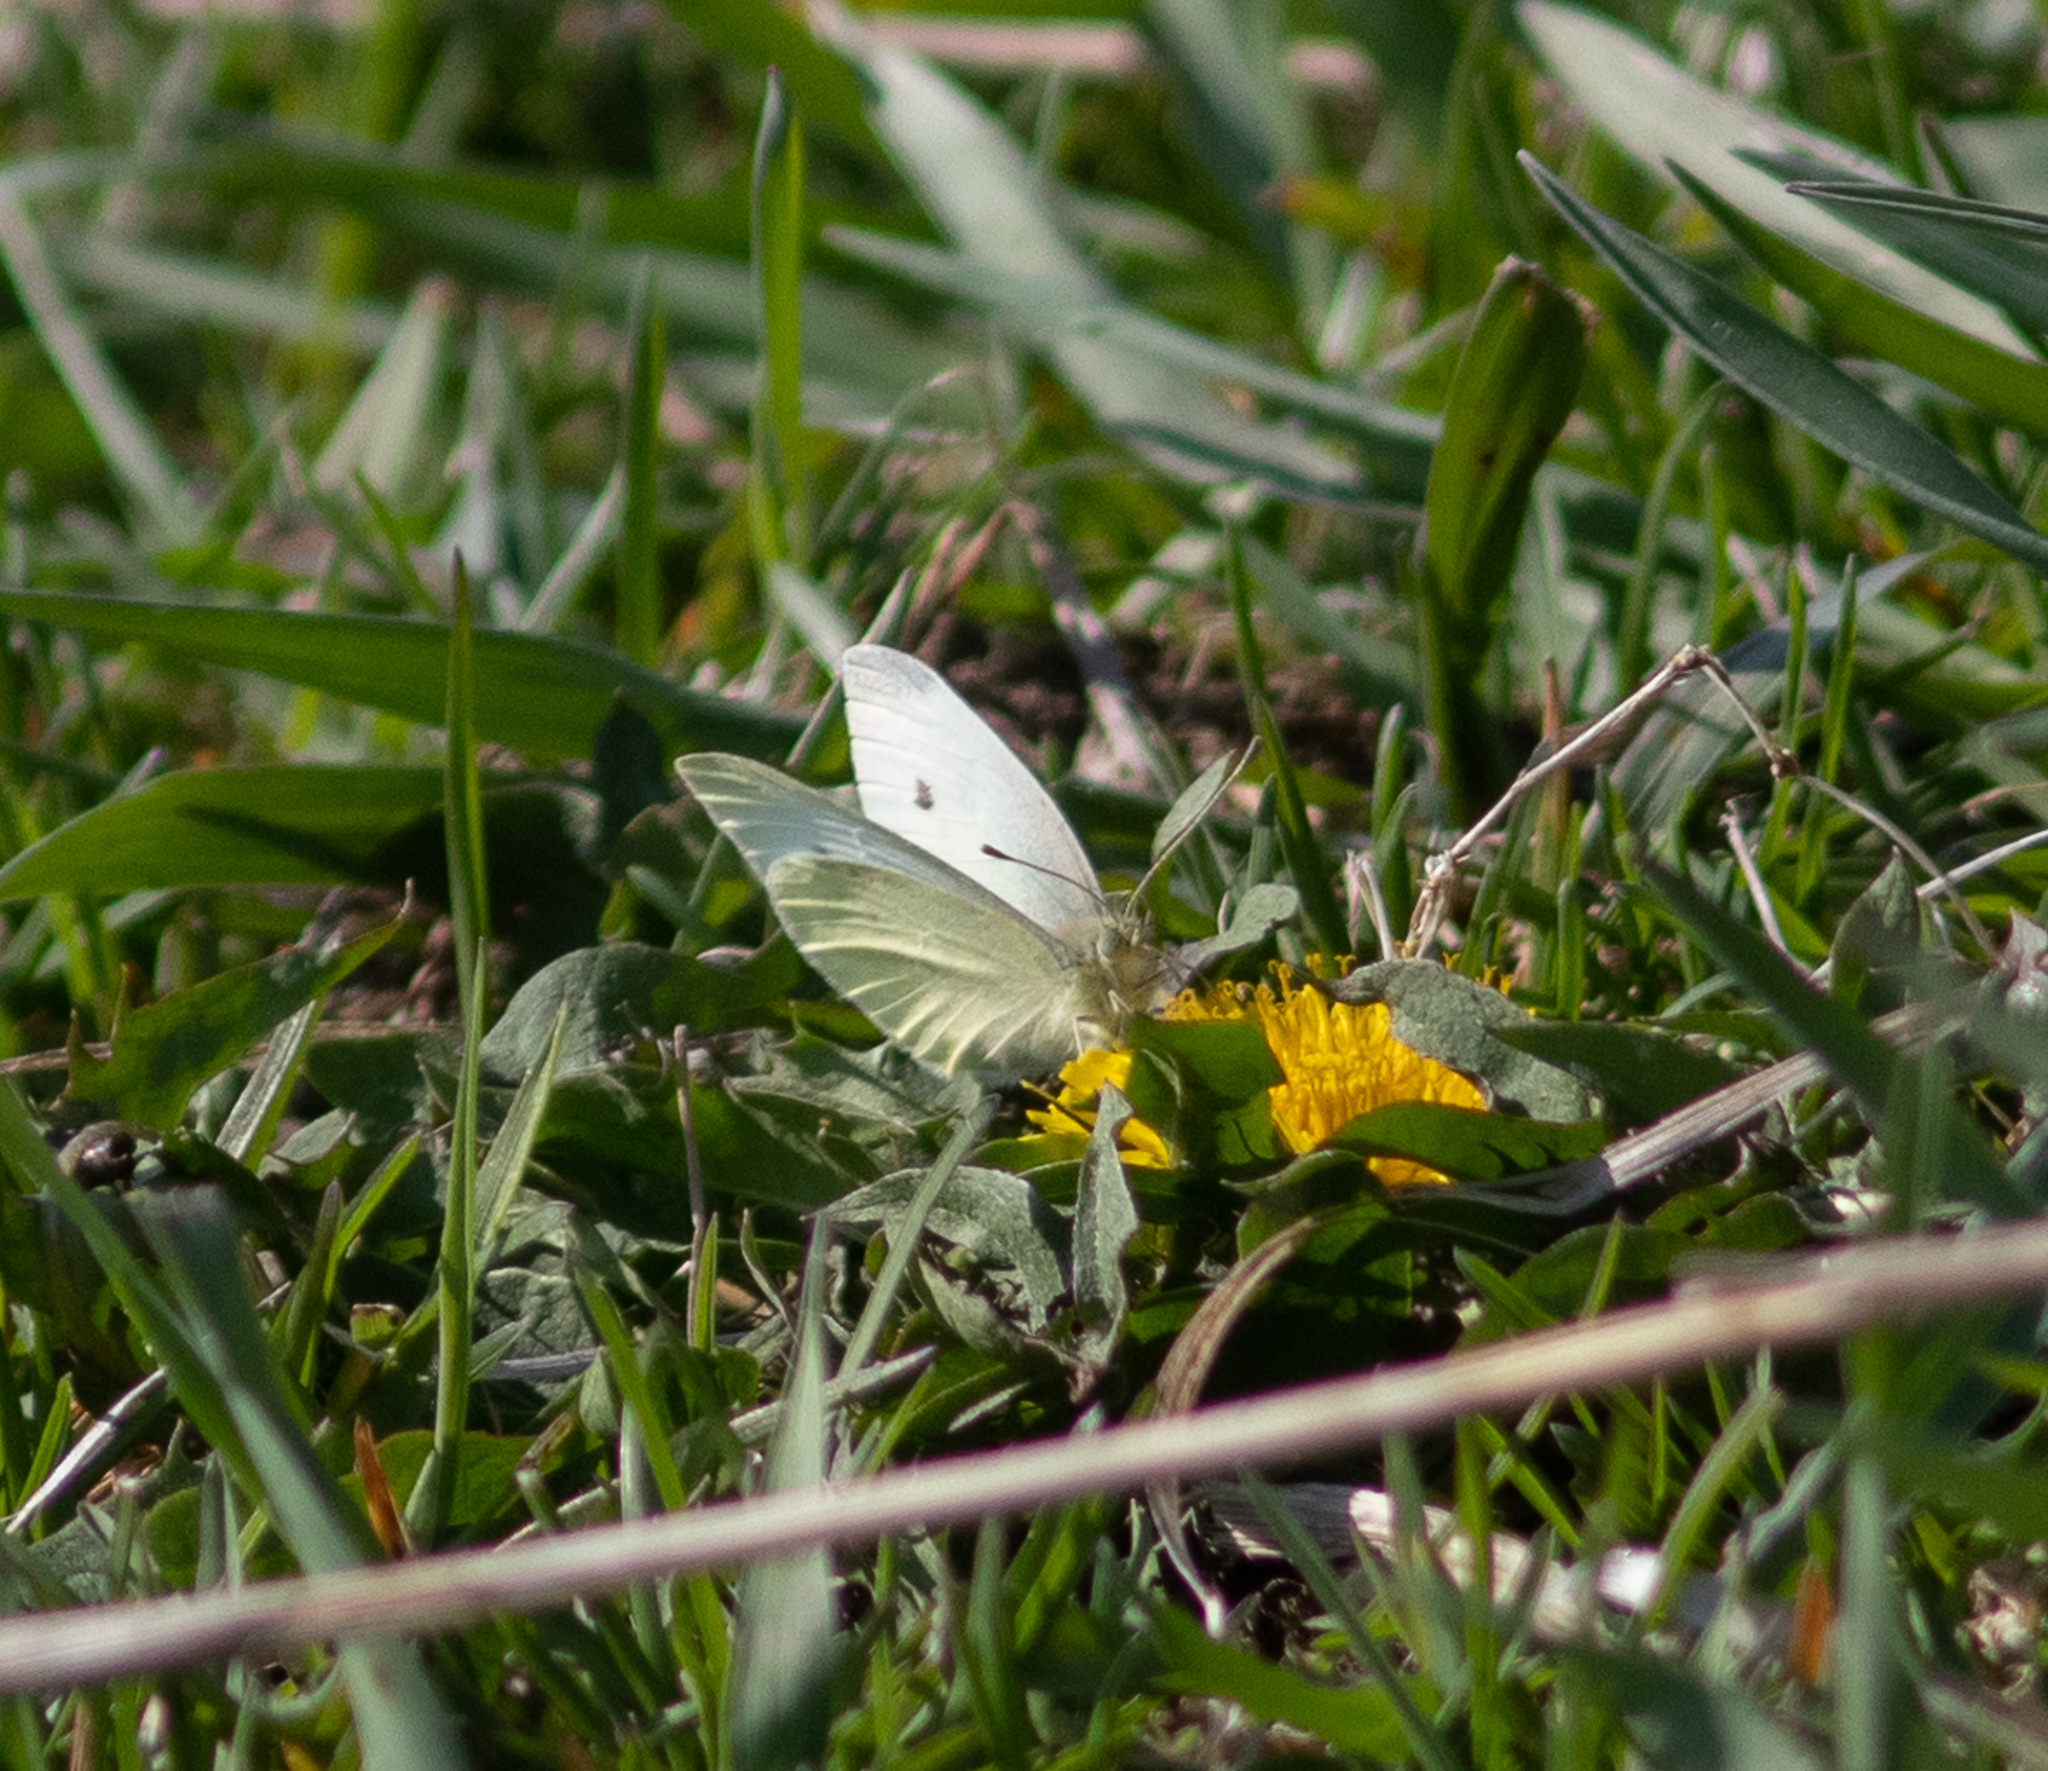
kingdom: Animalia
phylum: Arthropoda
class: Insecta
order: Lepidoptera
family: Pieridae
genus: Pieris
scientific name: Pieris rapae
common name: Small white
